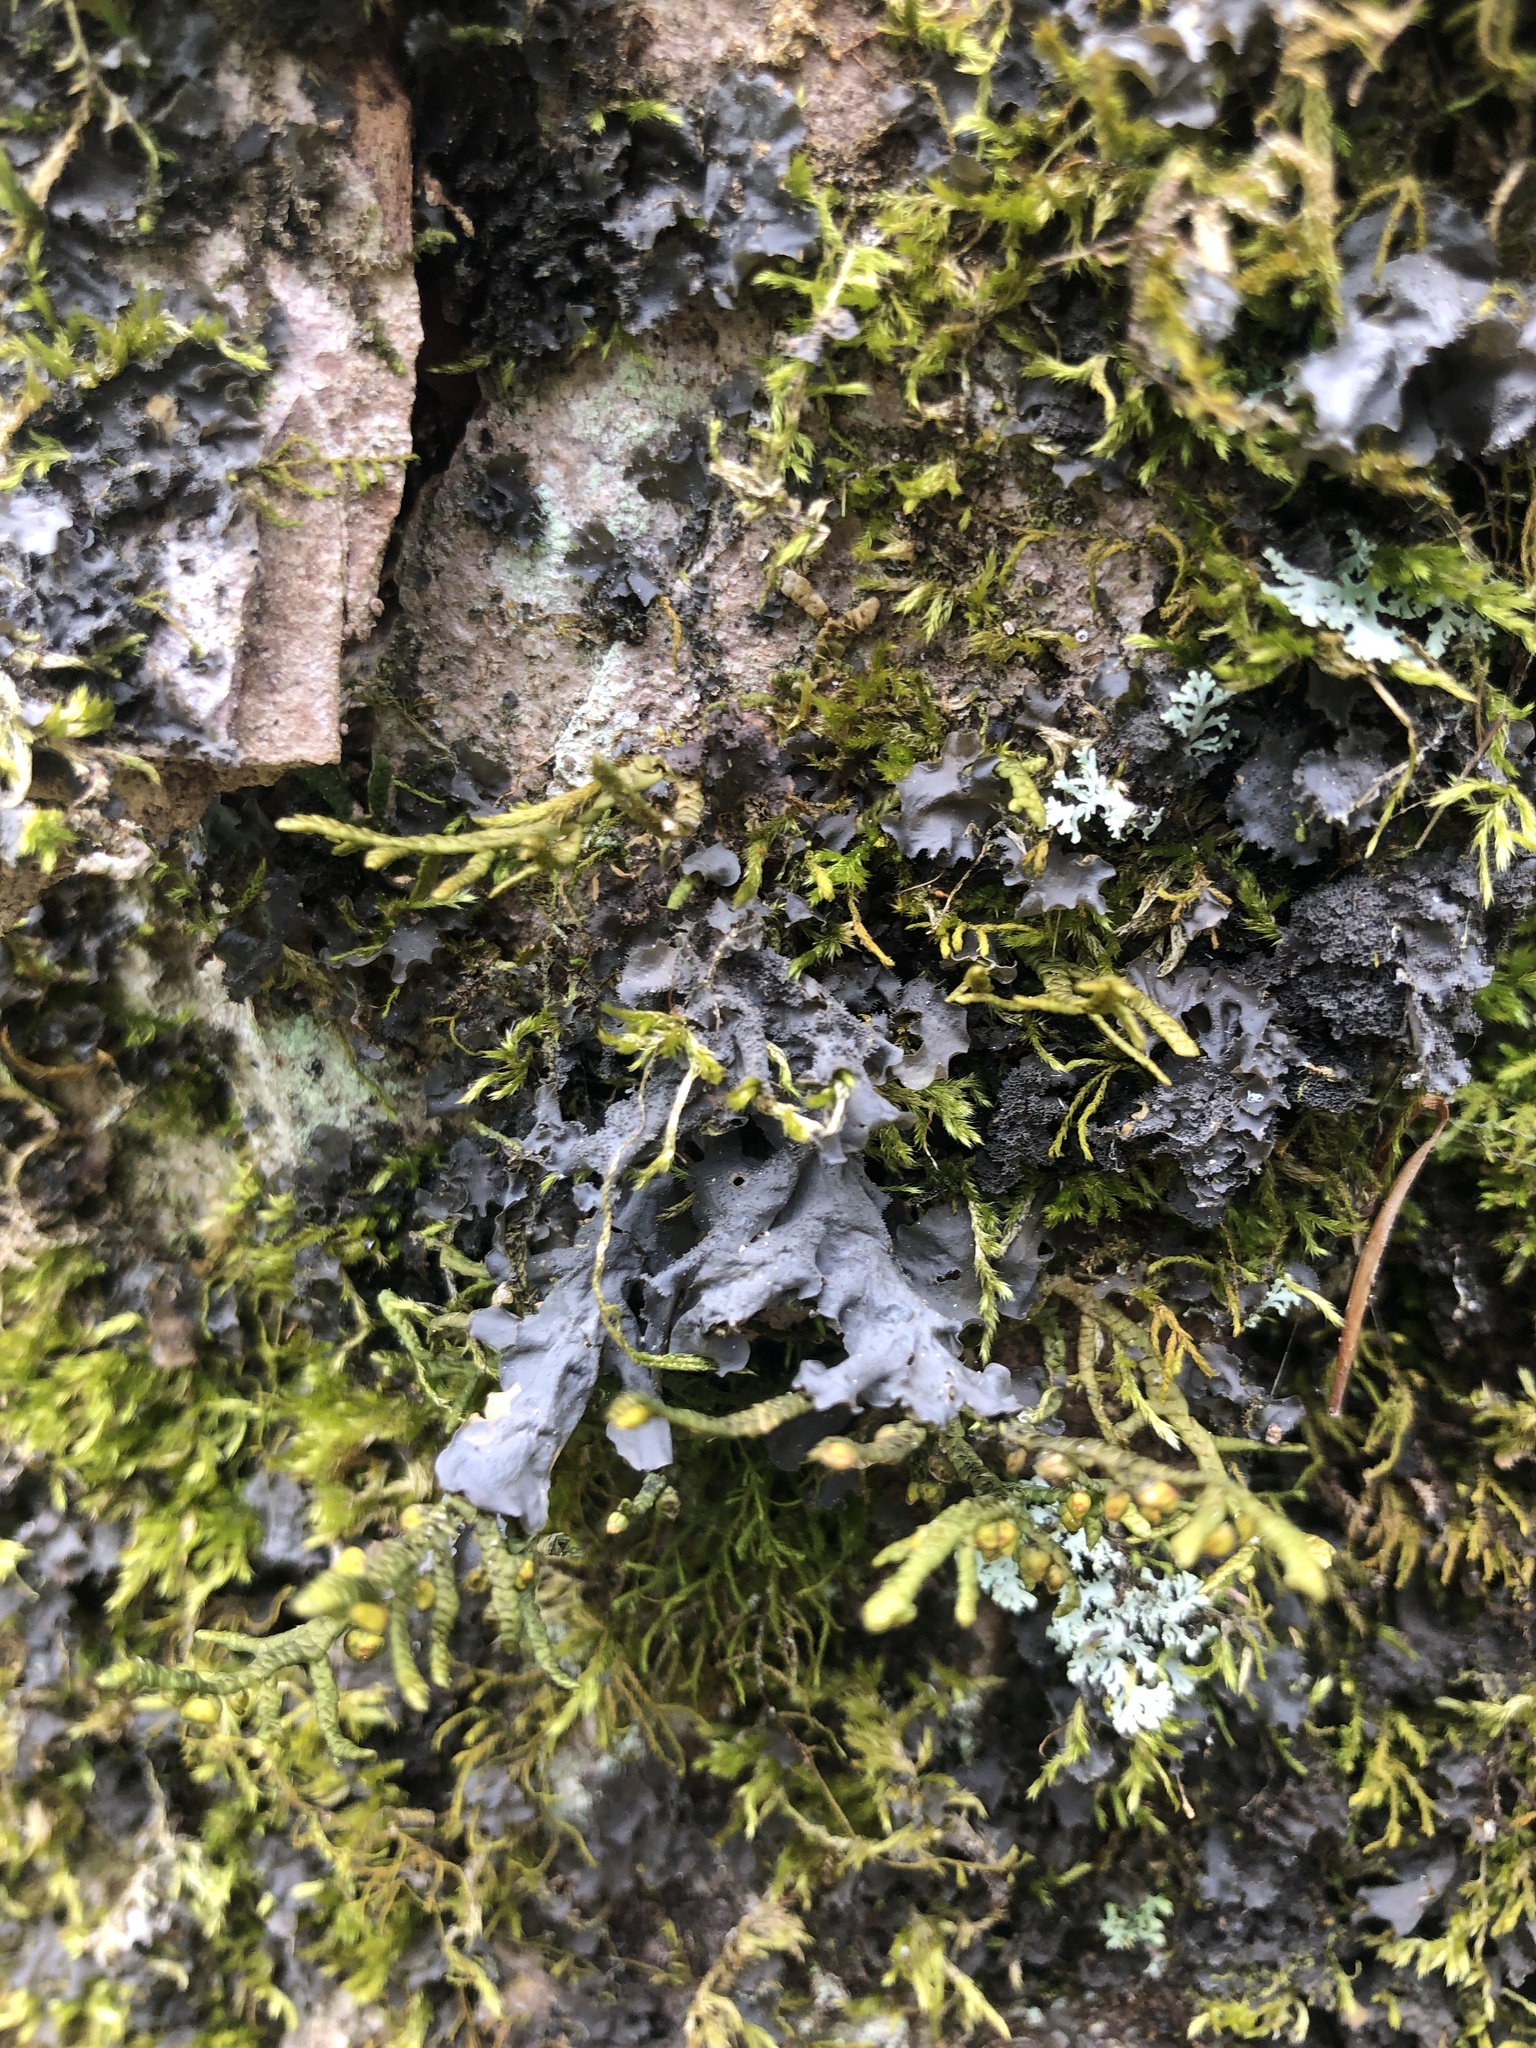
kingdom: Fungi
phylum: Ascomycota
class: Lecanoromycetes
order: Peltigerales
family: Collemataceae
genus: Leptogium
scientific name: Leptogium cyanescens
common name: Blue jellyskin
